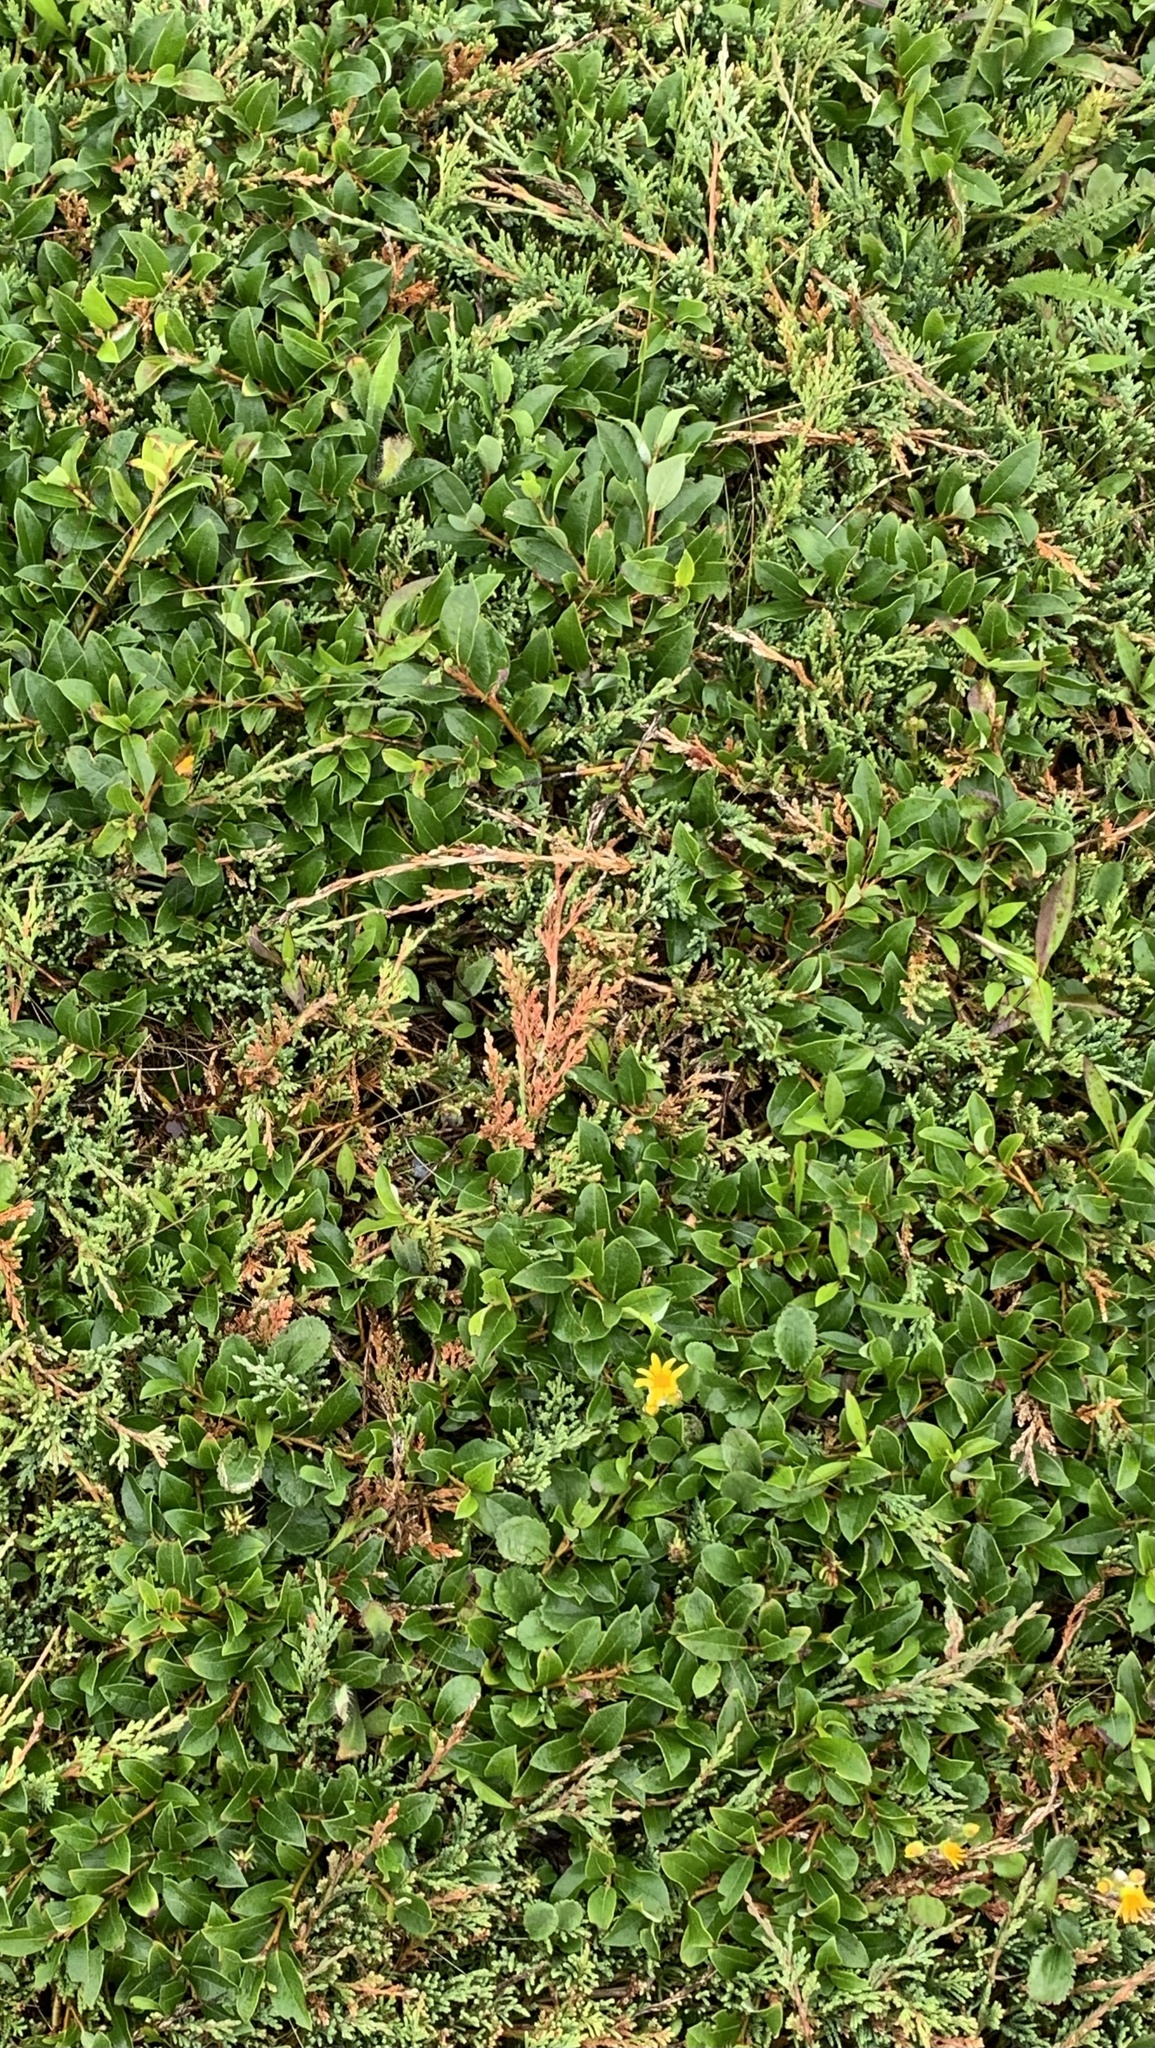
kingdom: Plantae
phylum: Tracheophyta
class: Pinopsida
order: Pinales
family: Cupressaceae
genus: Juniperus
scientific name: Juniperus horizontalis
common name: Creeping juniper
